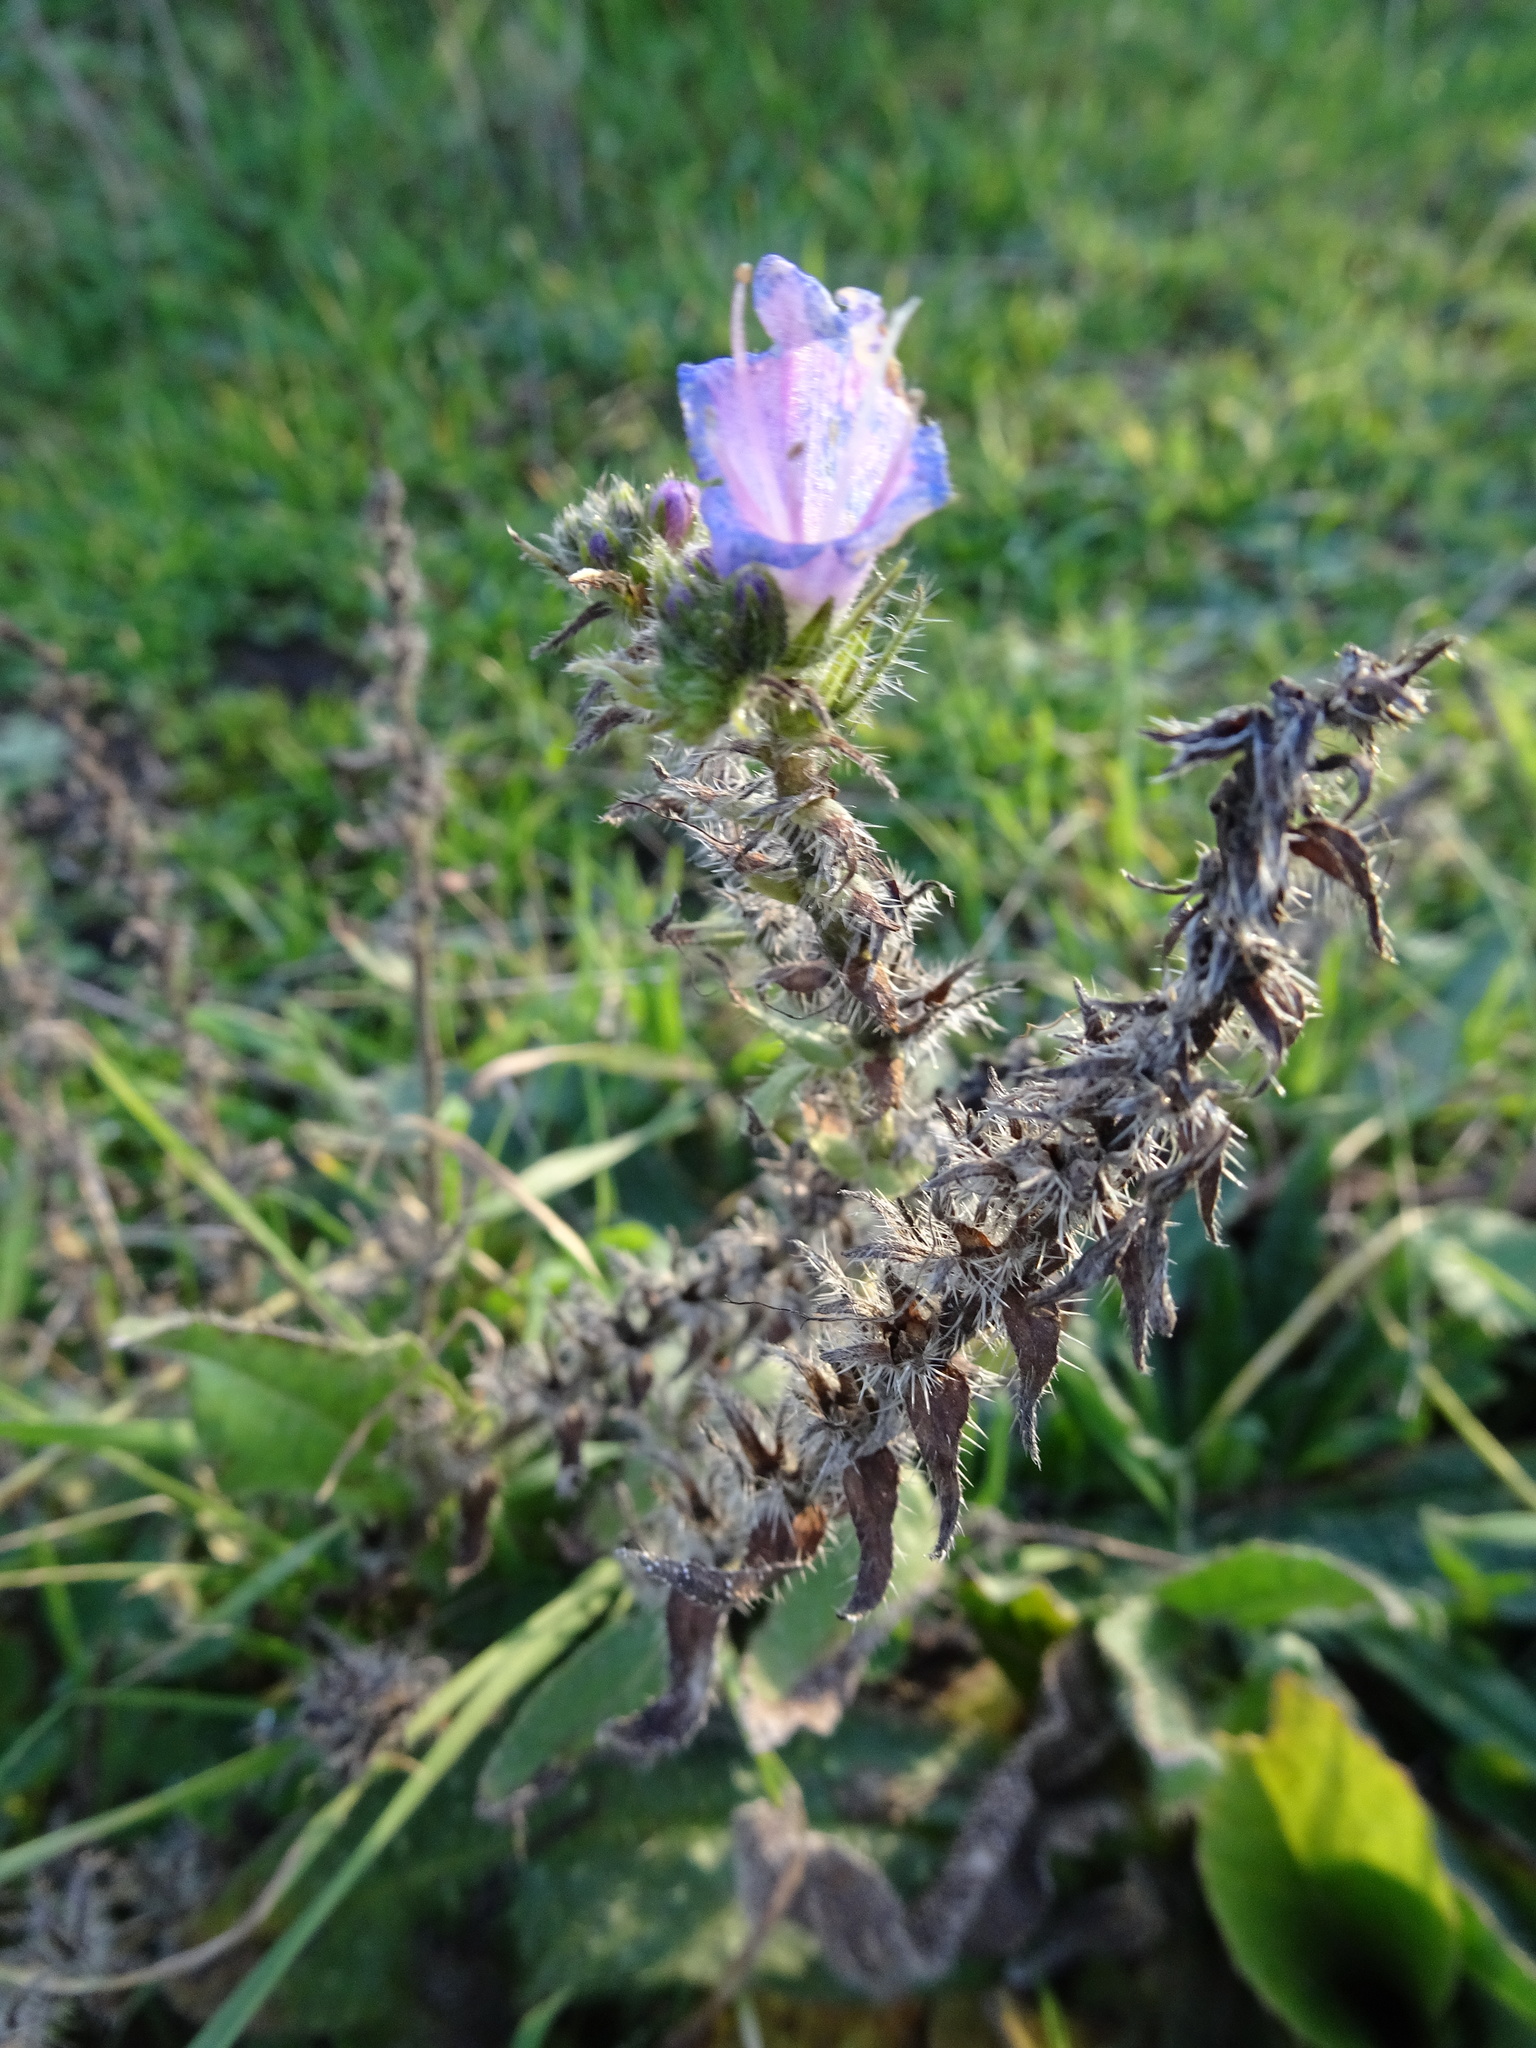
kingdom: Plantae
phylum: Tracheophyta
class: Magnoliopsida
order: Boraginales
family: Boraginaceae
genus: Echium
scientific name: Echium vulgare
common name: Common viper's bugloss
